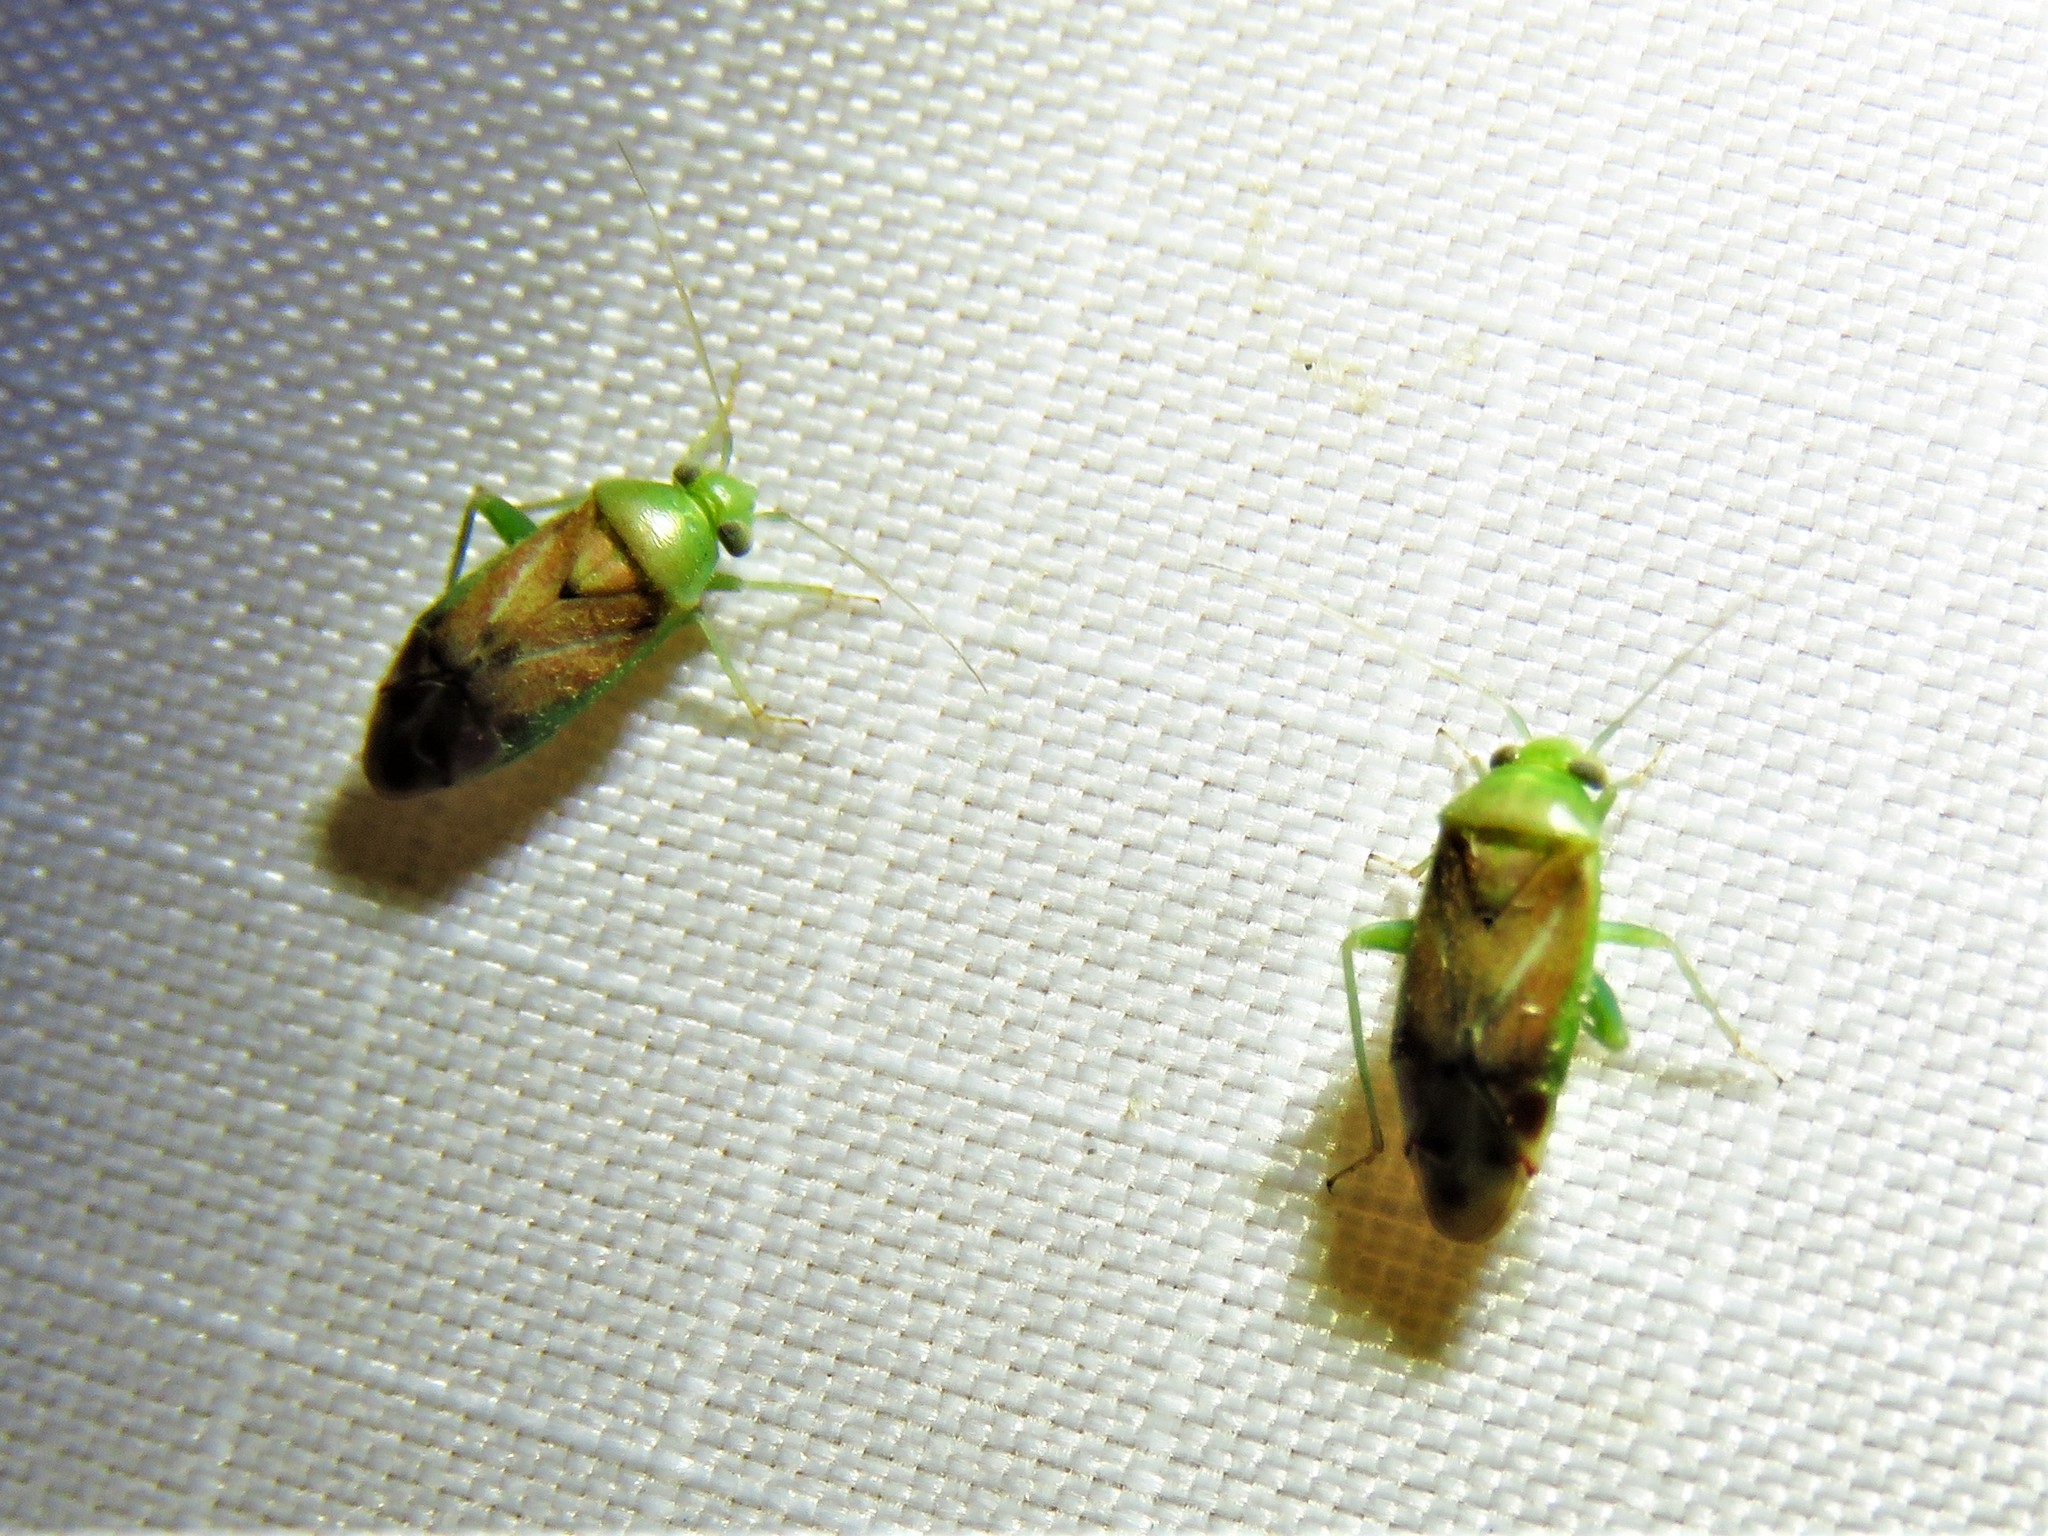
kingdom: Animalia
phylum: Arthropoda
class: Insecta
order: Hemiptera
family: Miridae
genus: Dichrooscytus
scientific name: Dichrooscytus
